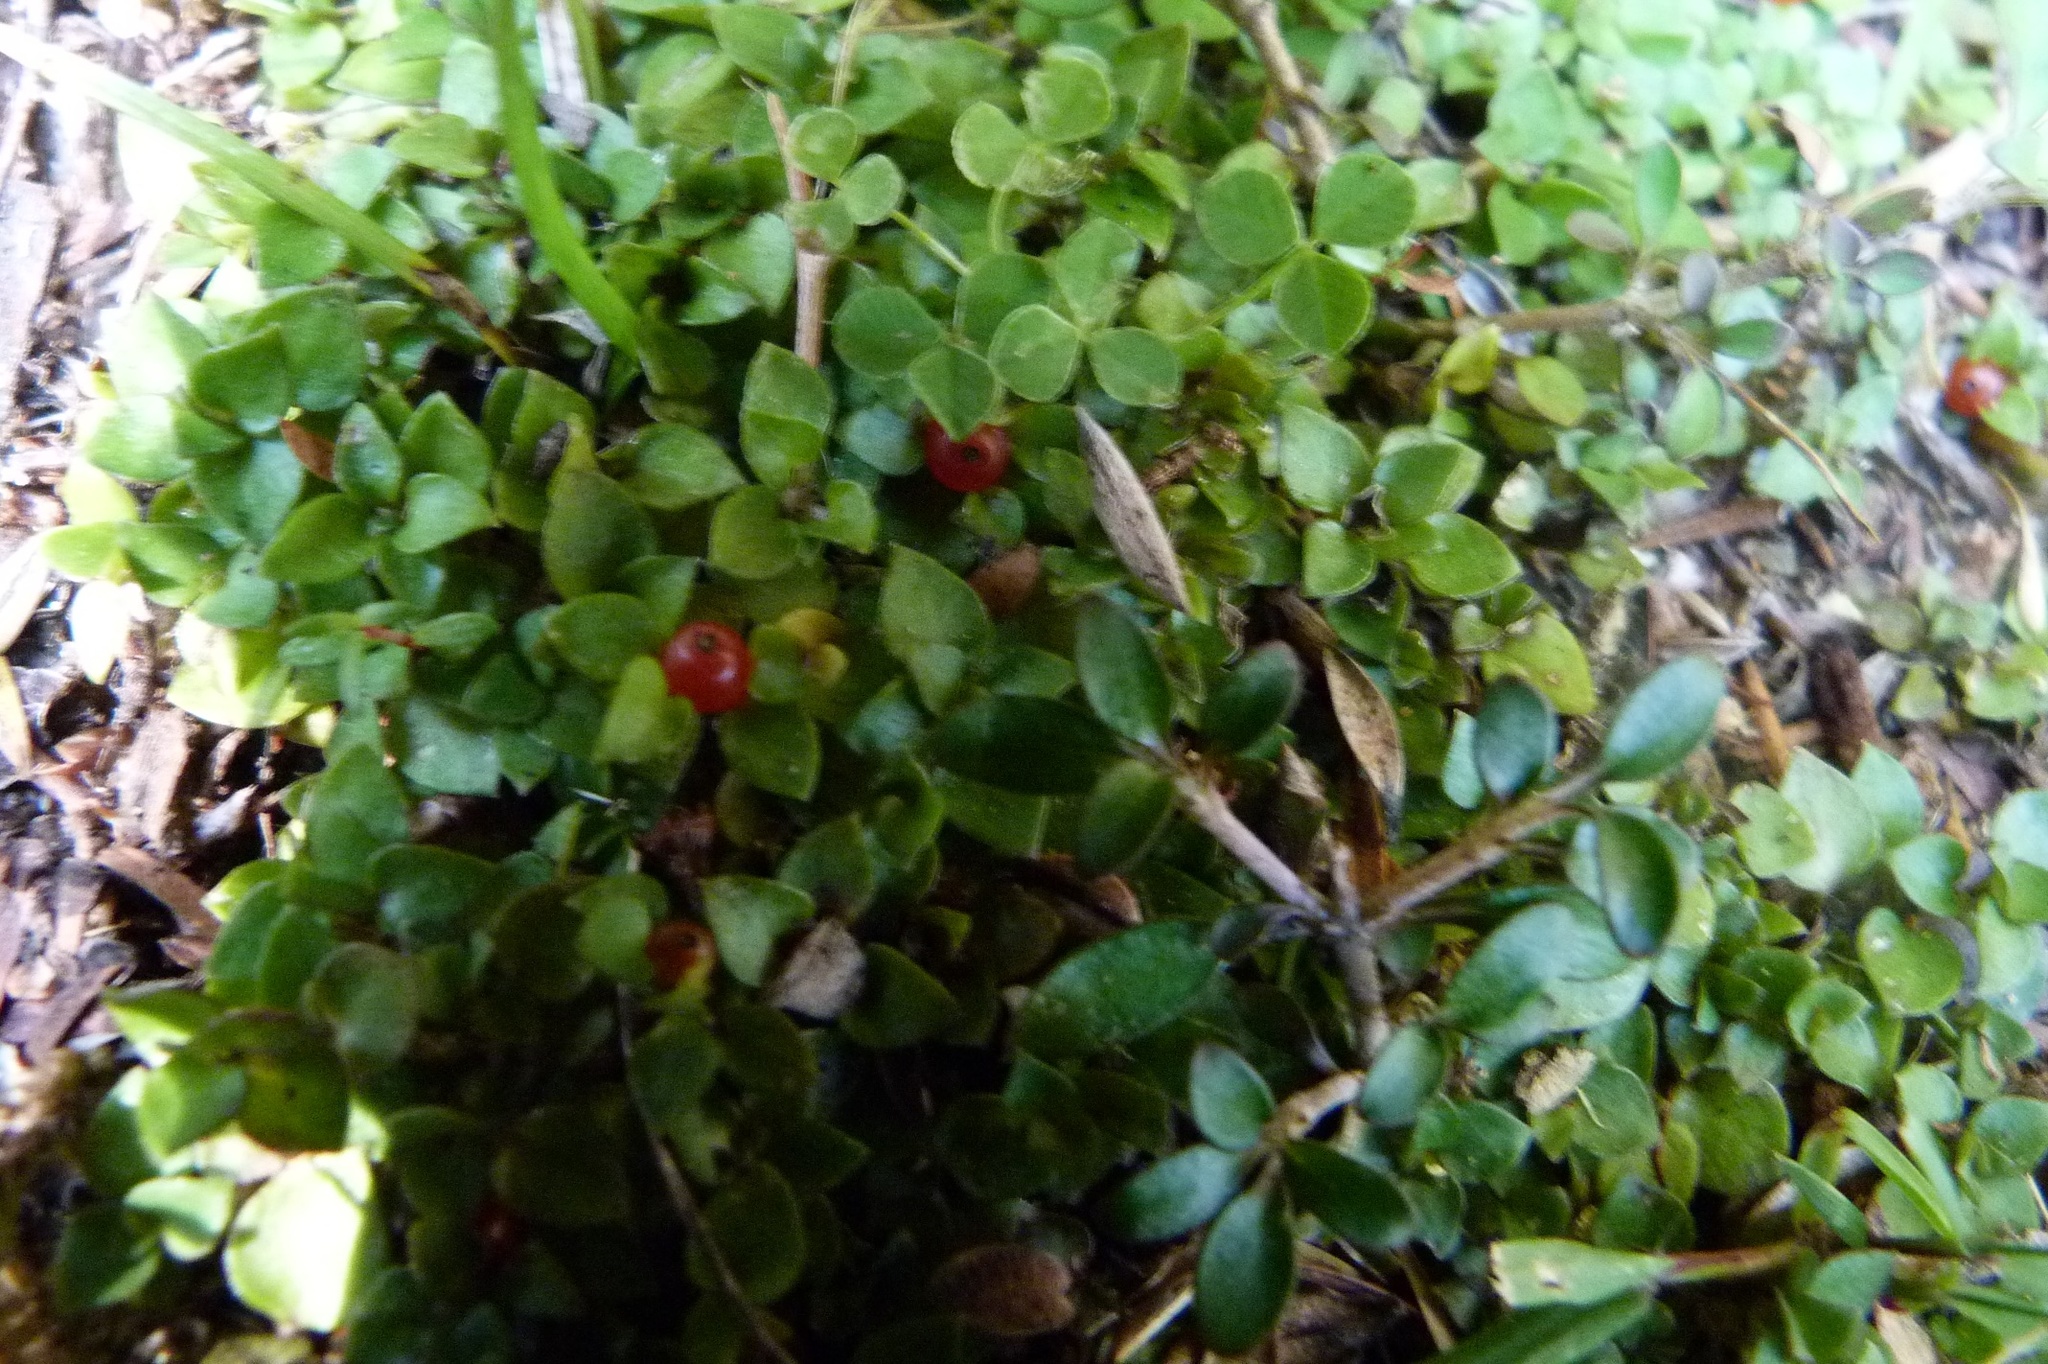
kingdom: Plantae
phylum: Tracheophyta
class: Magnoliopsida
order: Gentianales
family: Rubiaceae
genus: Nertera
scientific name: Nertera granadensis
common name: Beadplant
